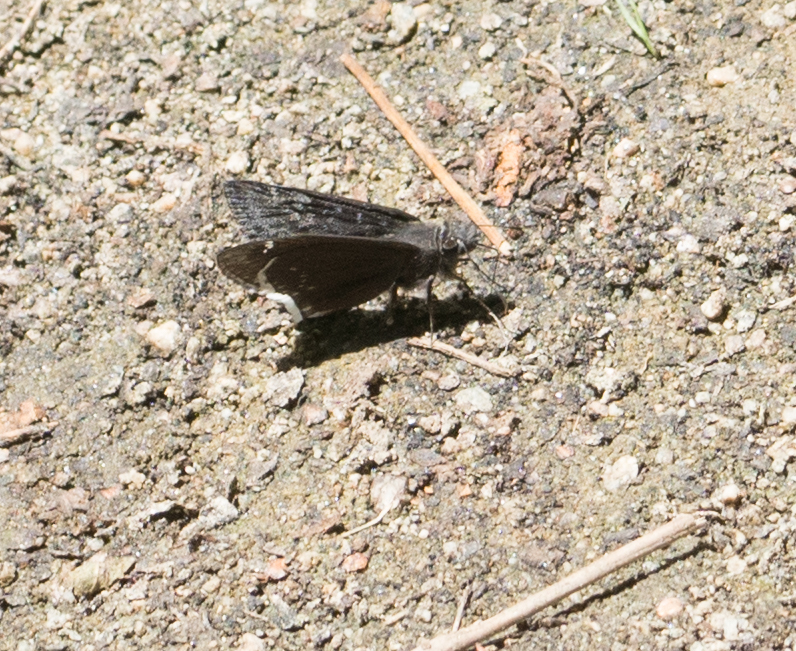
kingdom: Animalia
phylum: Arthropoda
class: Insecta
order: Lepidoptera
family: Hesperiidae
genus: Erynnis
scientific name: Erynnis funeralis
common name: Funereal duskywing
